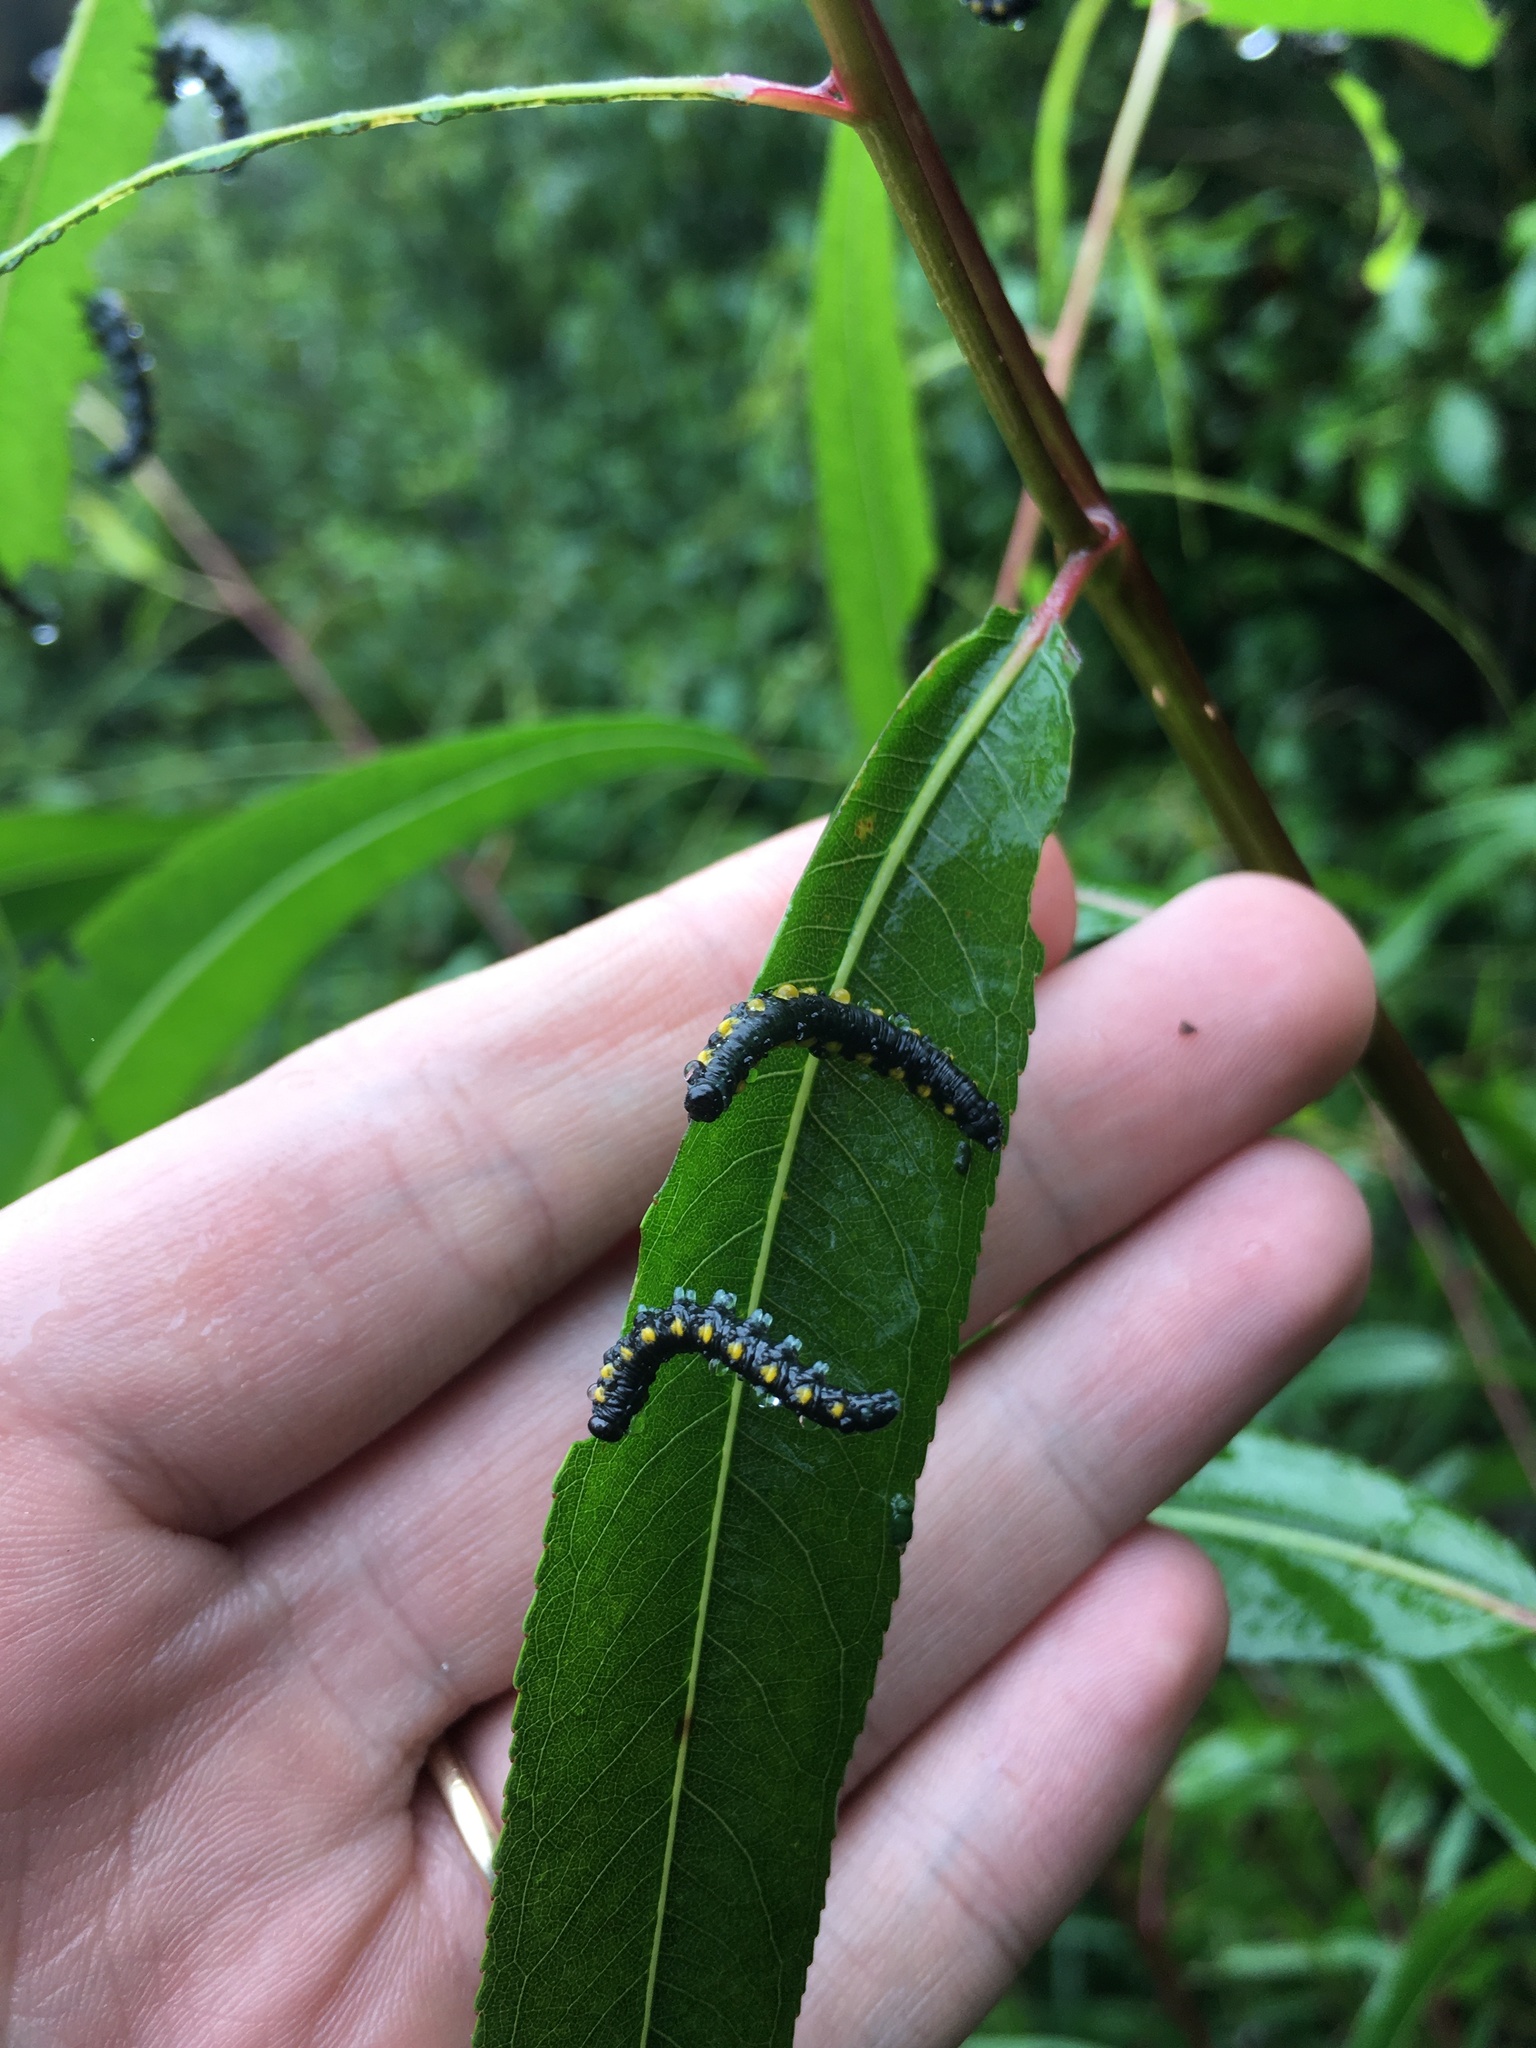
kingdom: Animalia
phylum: Arthropoda
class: Insecta
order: Hymenoptera
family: Tenthredinidae
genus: Euura
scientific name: Euura ventralis
